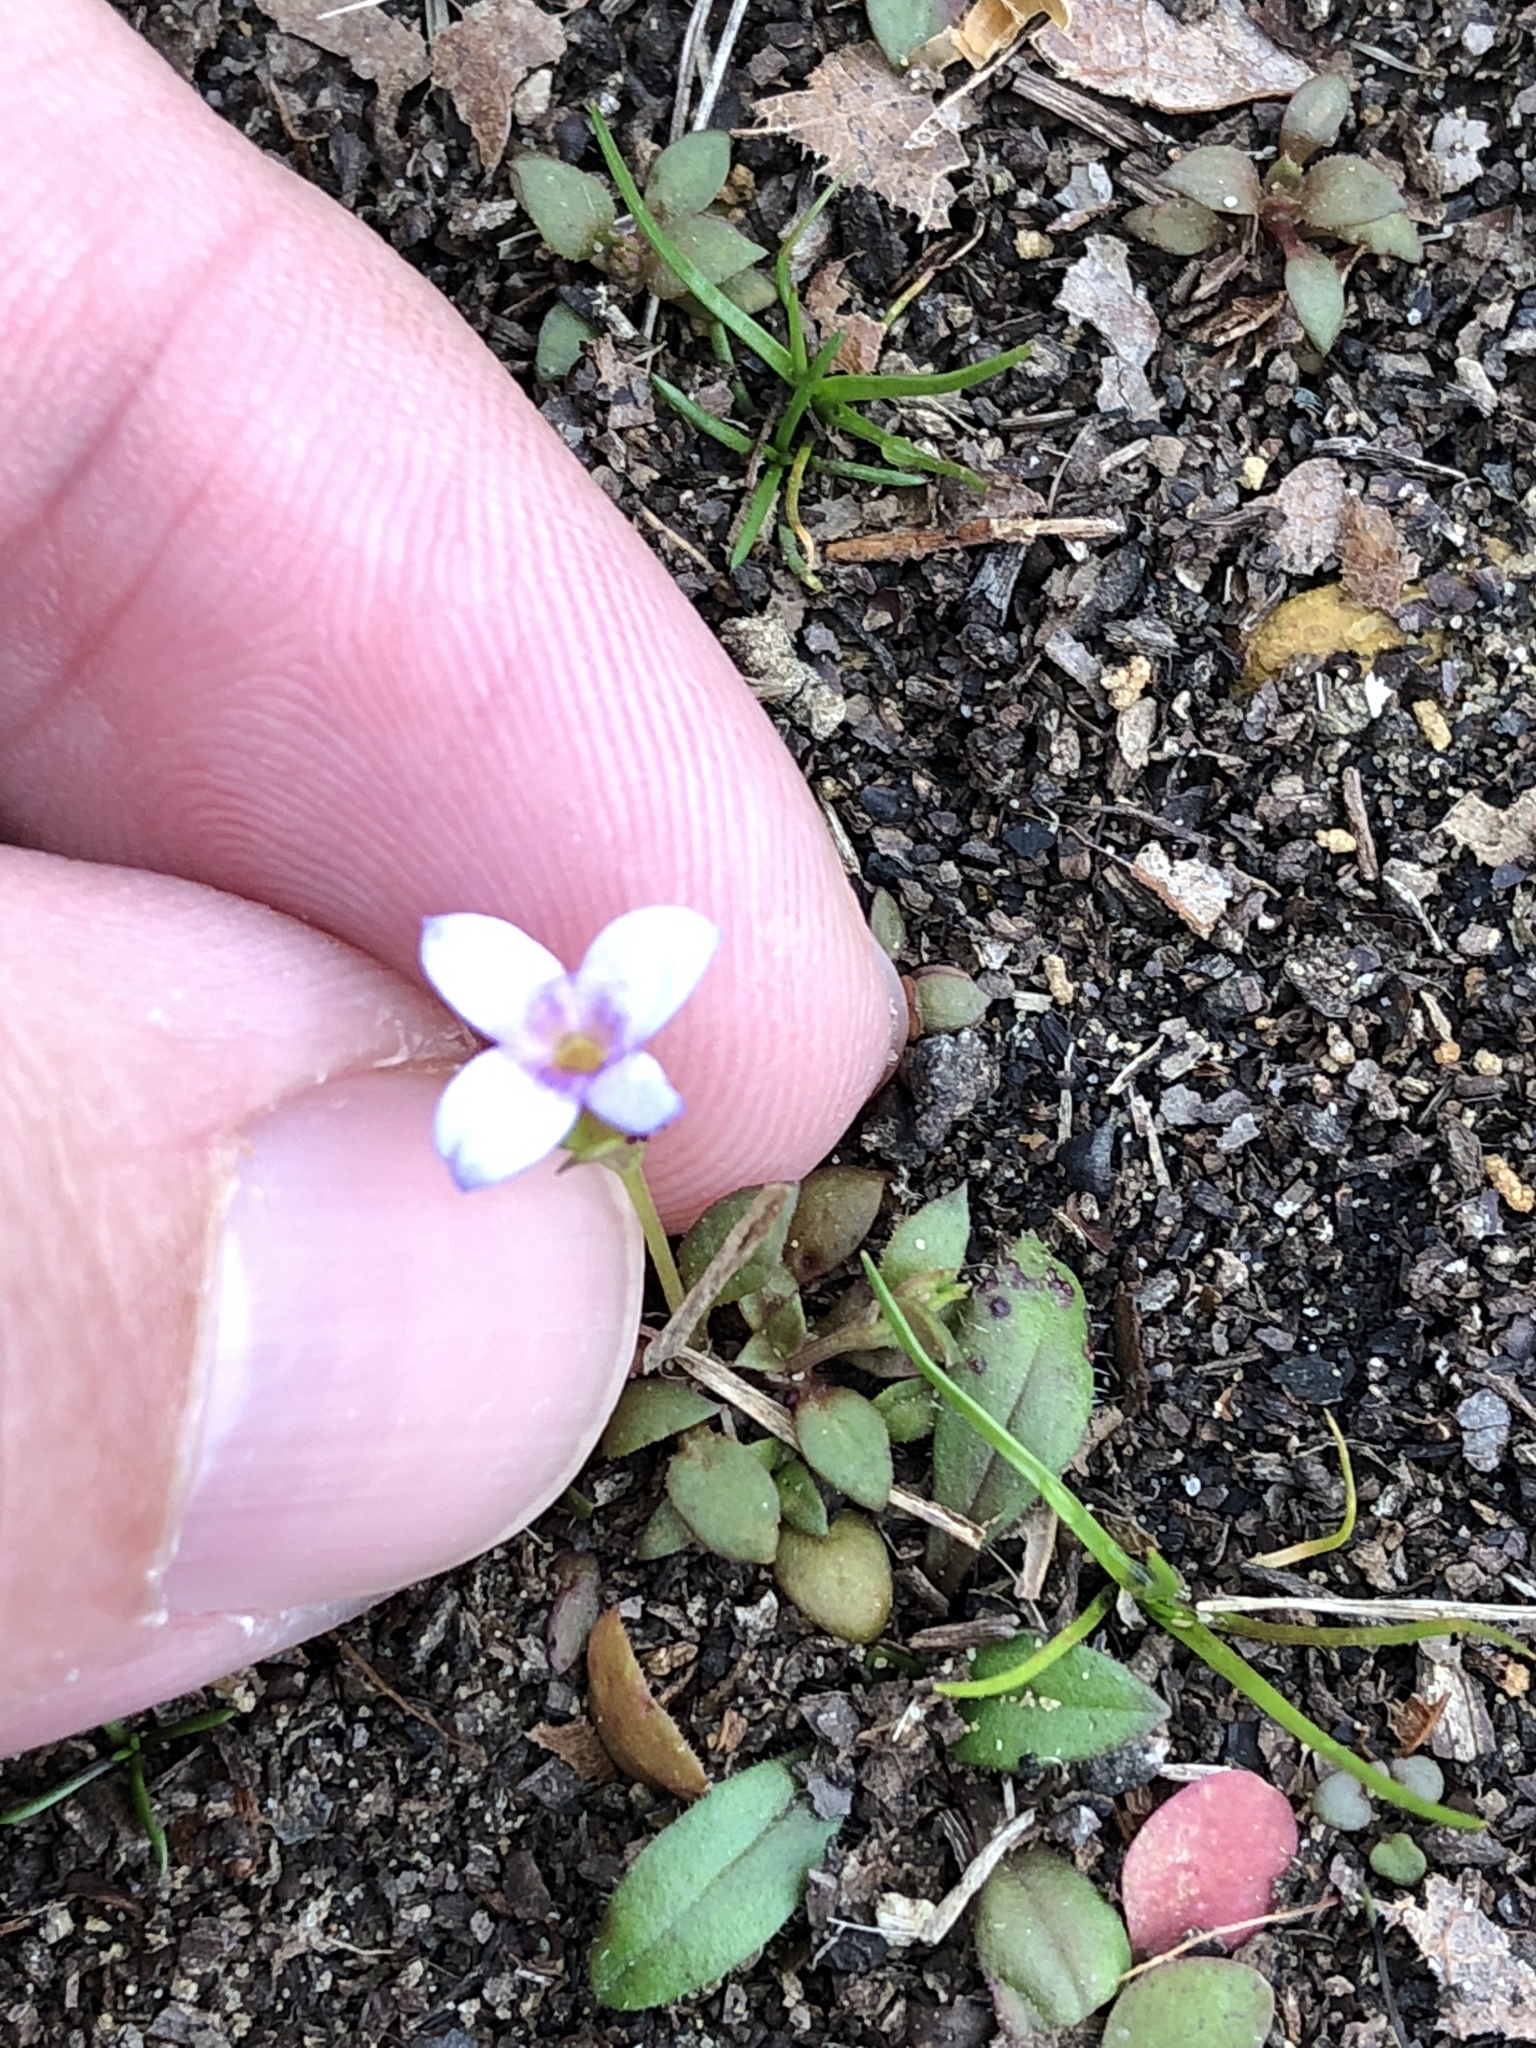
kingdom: Plantae
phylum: Tracheophyta
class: Magnoliopsida
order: Gentianales
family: Rubiaceae
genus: Houstonia
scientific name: Houstonia pusilla
